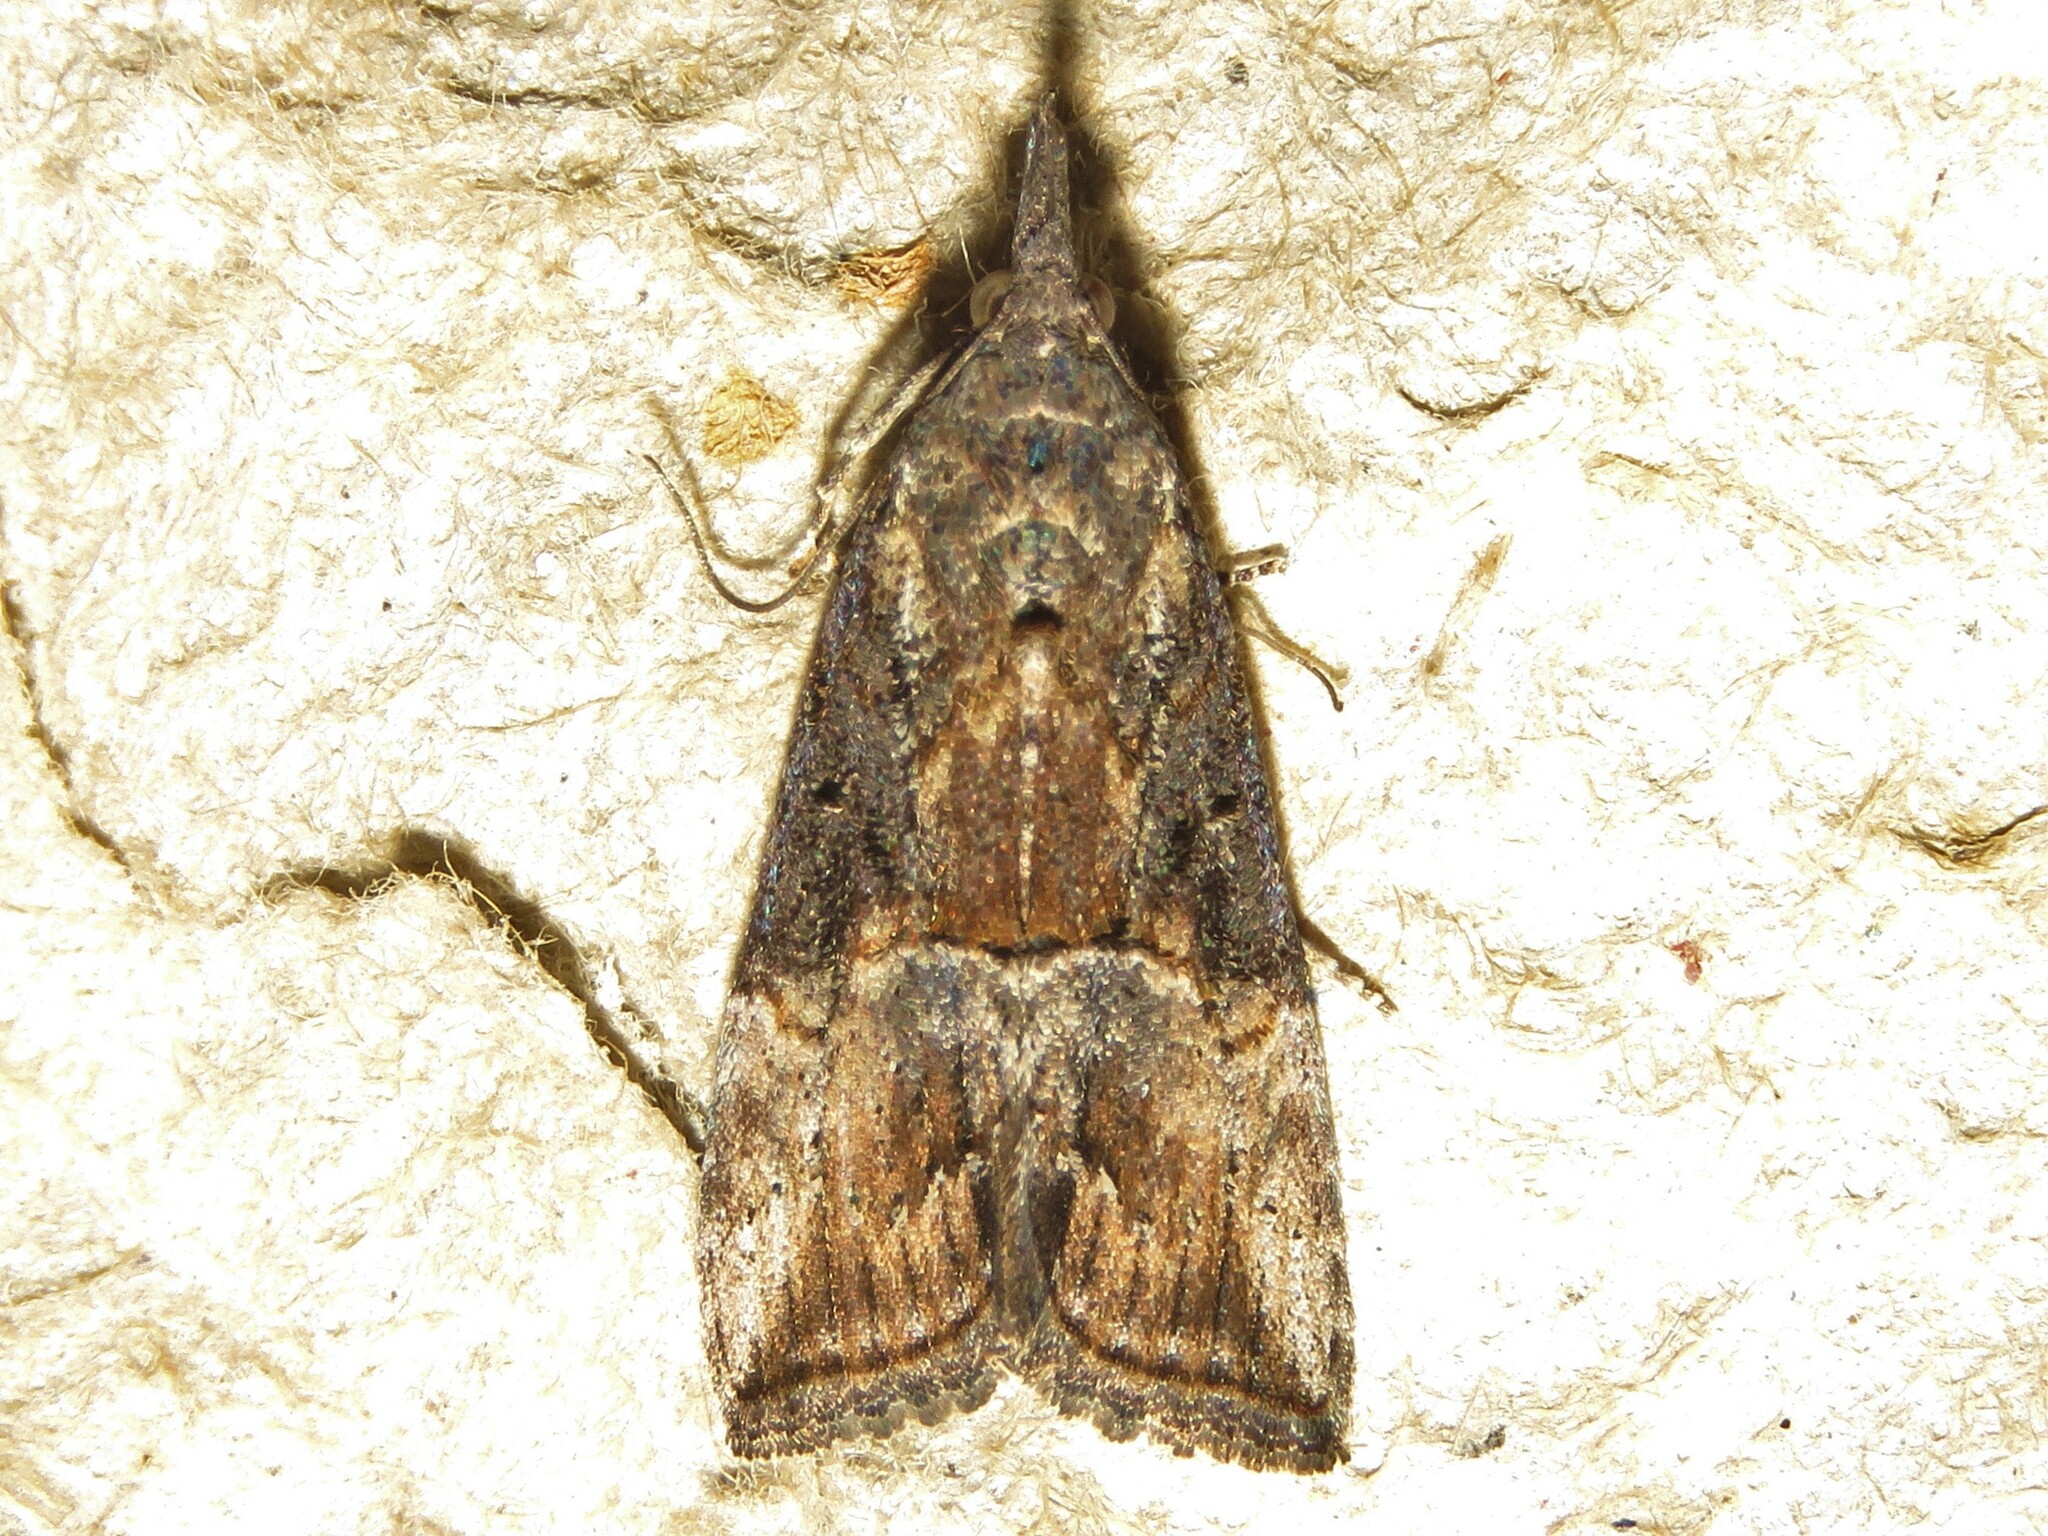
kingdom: Animalia
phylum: Arthropoda
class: Insecta
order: Lepidoptera
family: Erebidae
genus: Hypena
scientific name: Hypena scabra
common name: Green cloverworm
